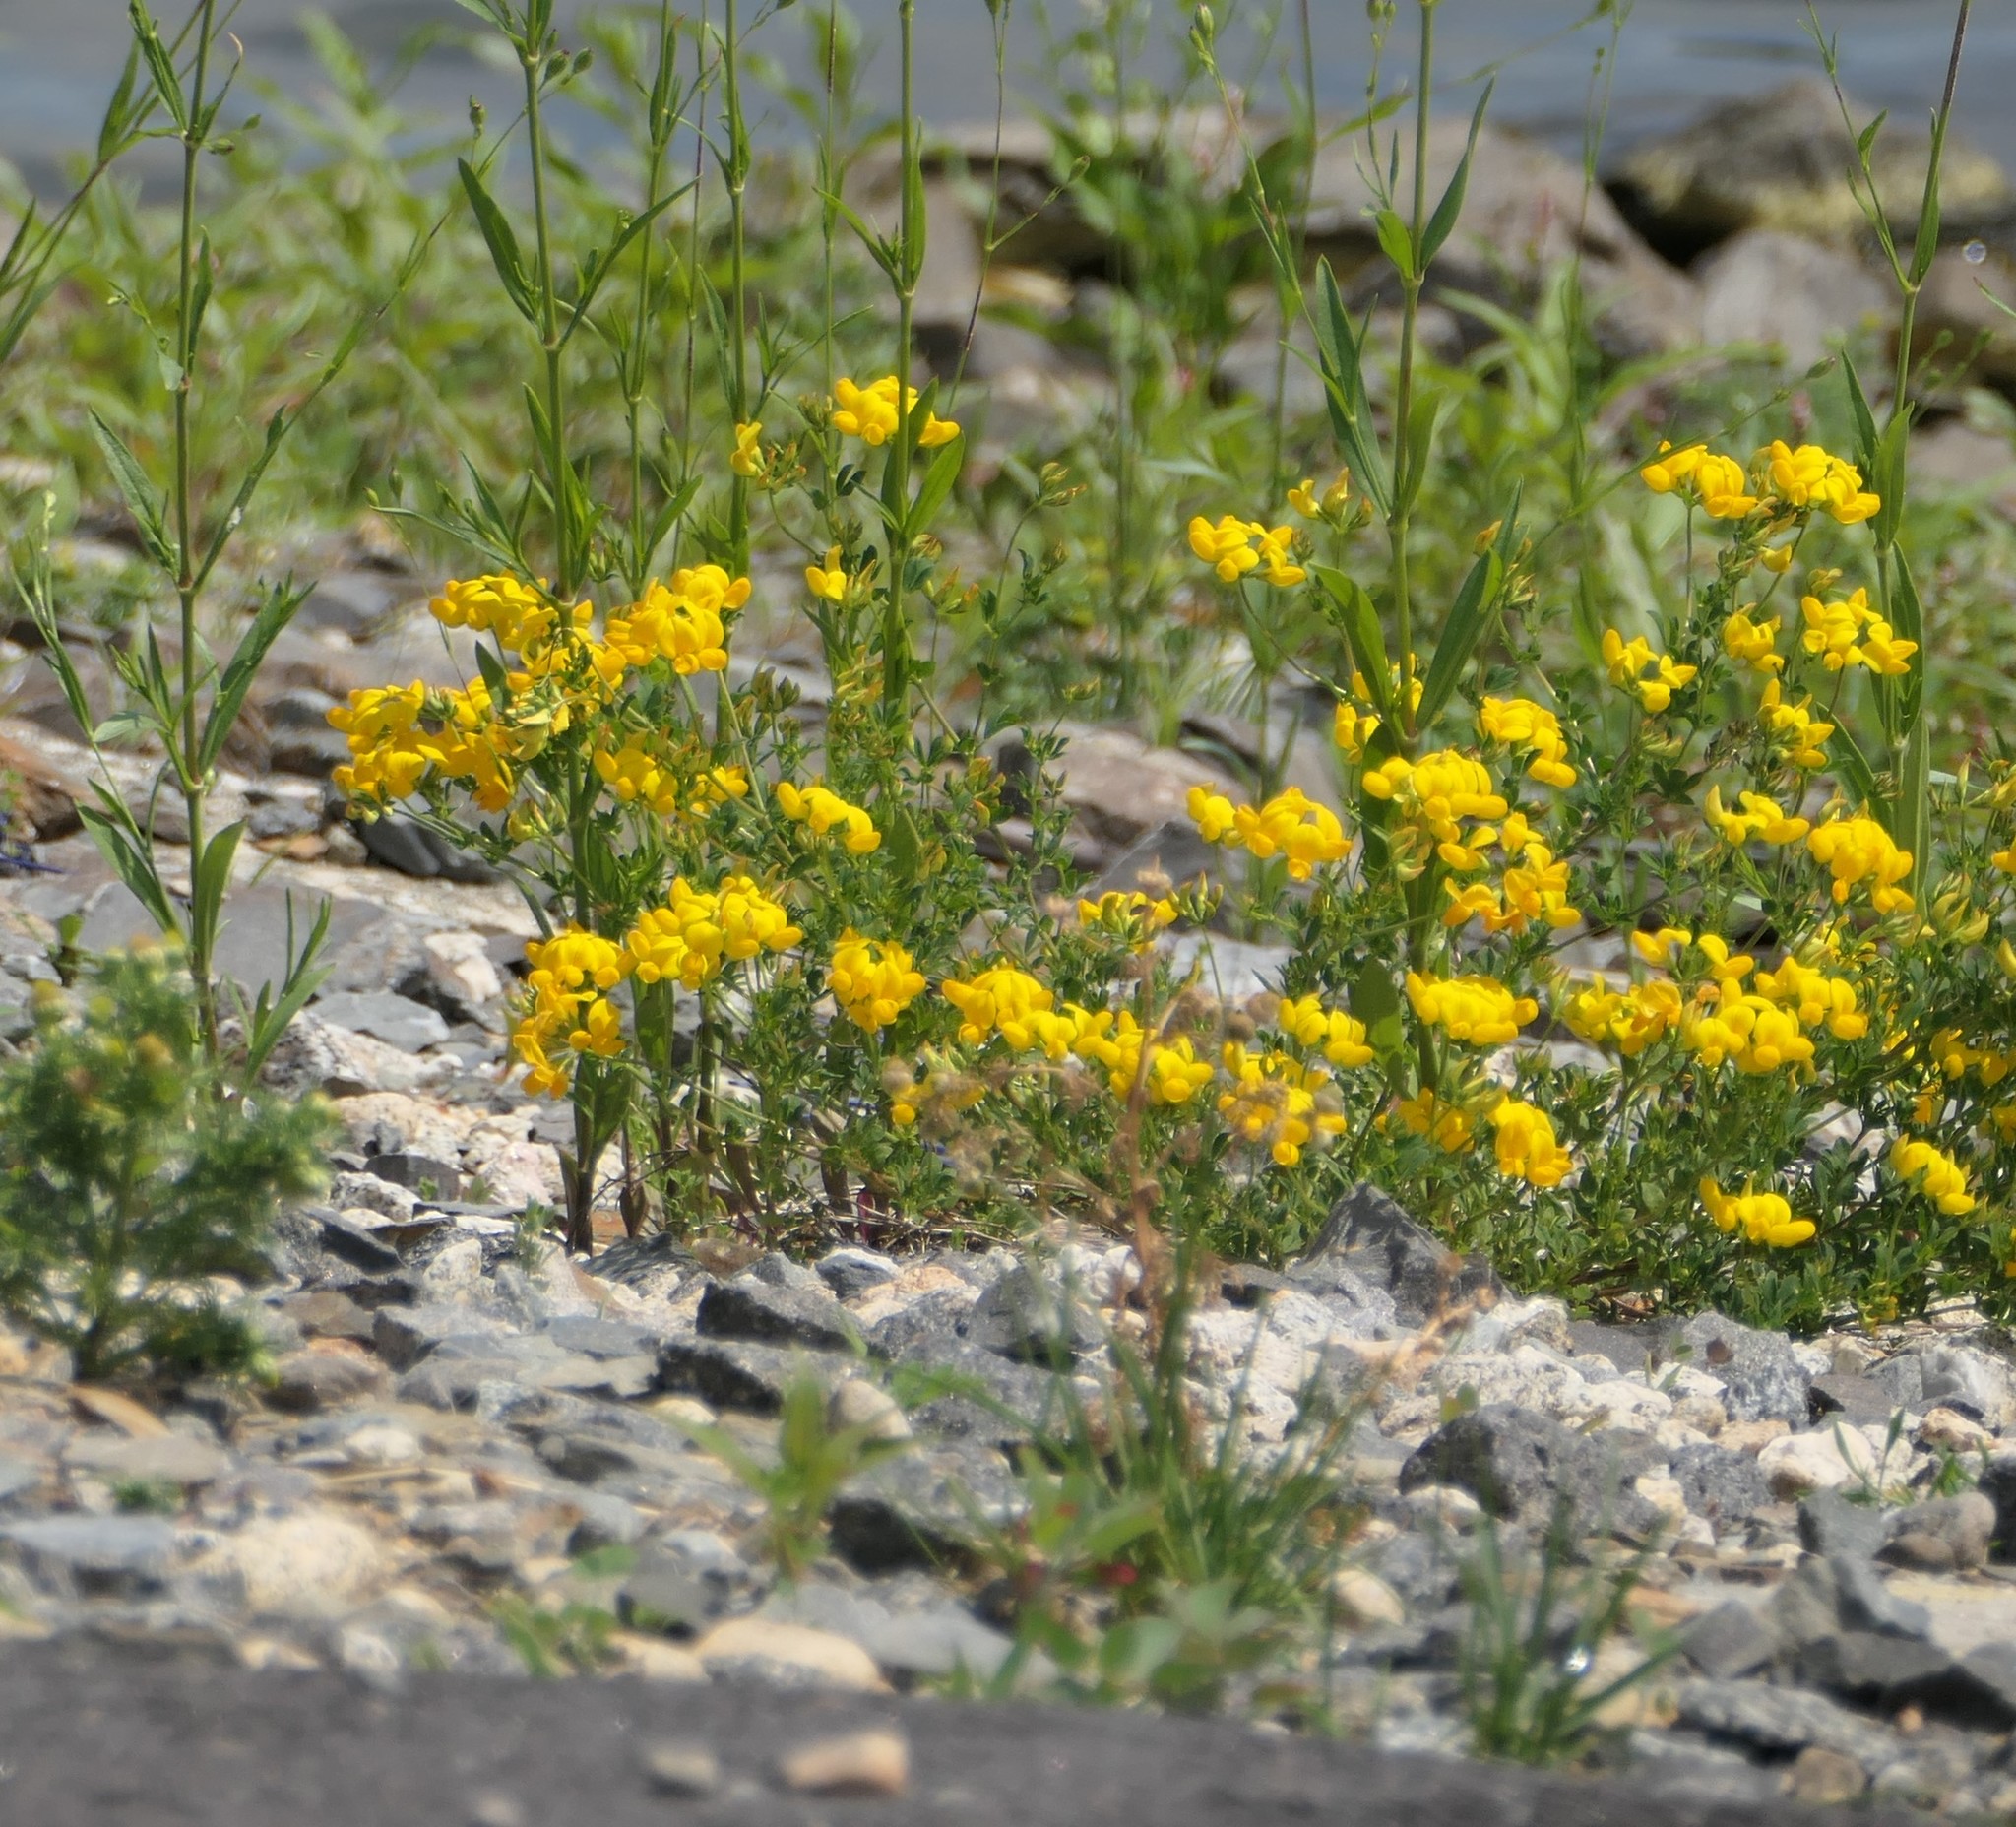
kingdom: Plantae
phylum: Tracheophyta
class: Magnoliopsida
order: Fabales
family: Fabaceae
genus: Lotus
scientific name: Lotus corniculatus
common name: Common bird's-foot-trefoil
